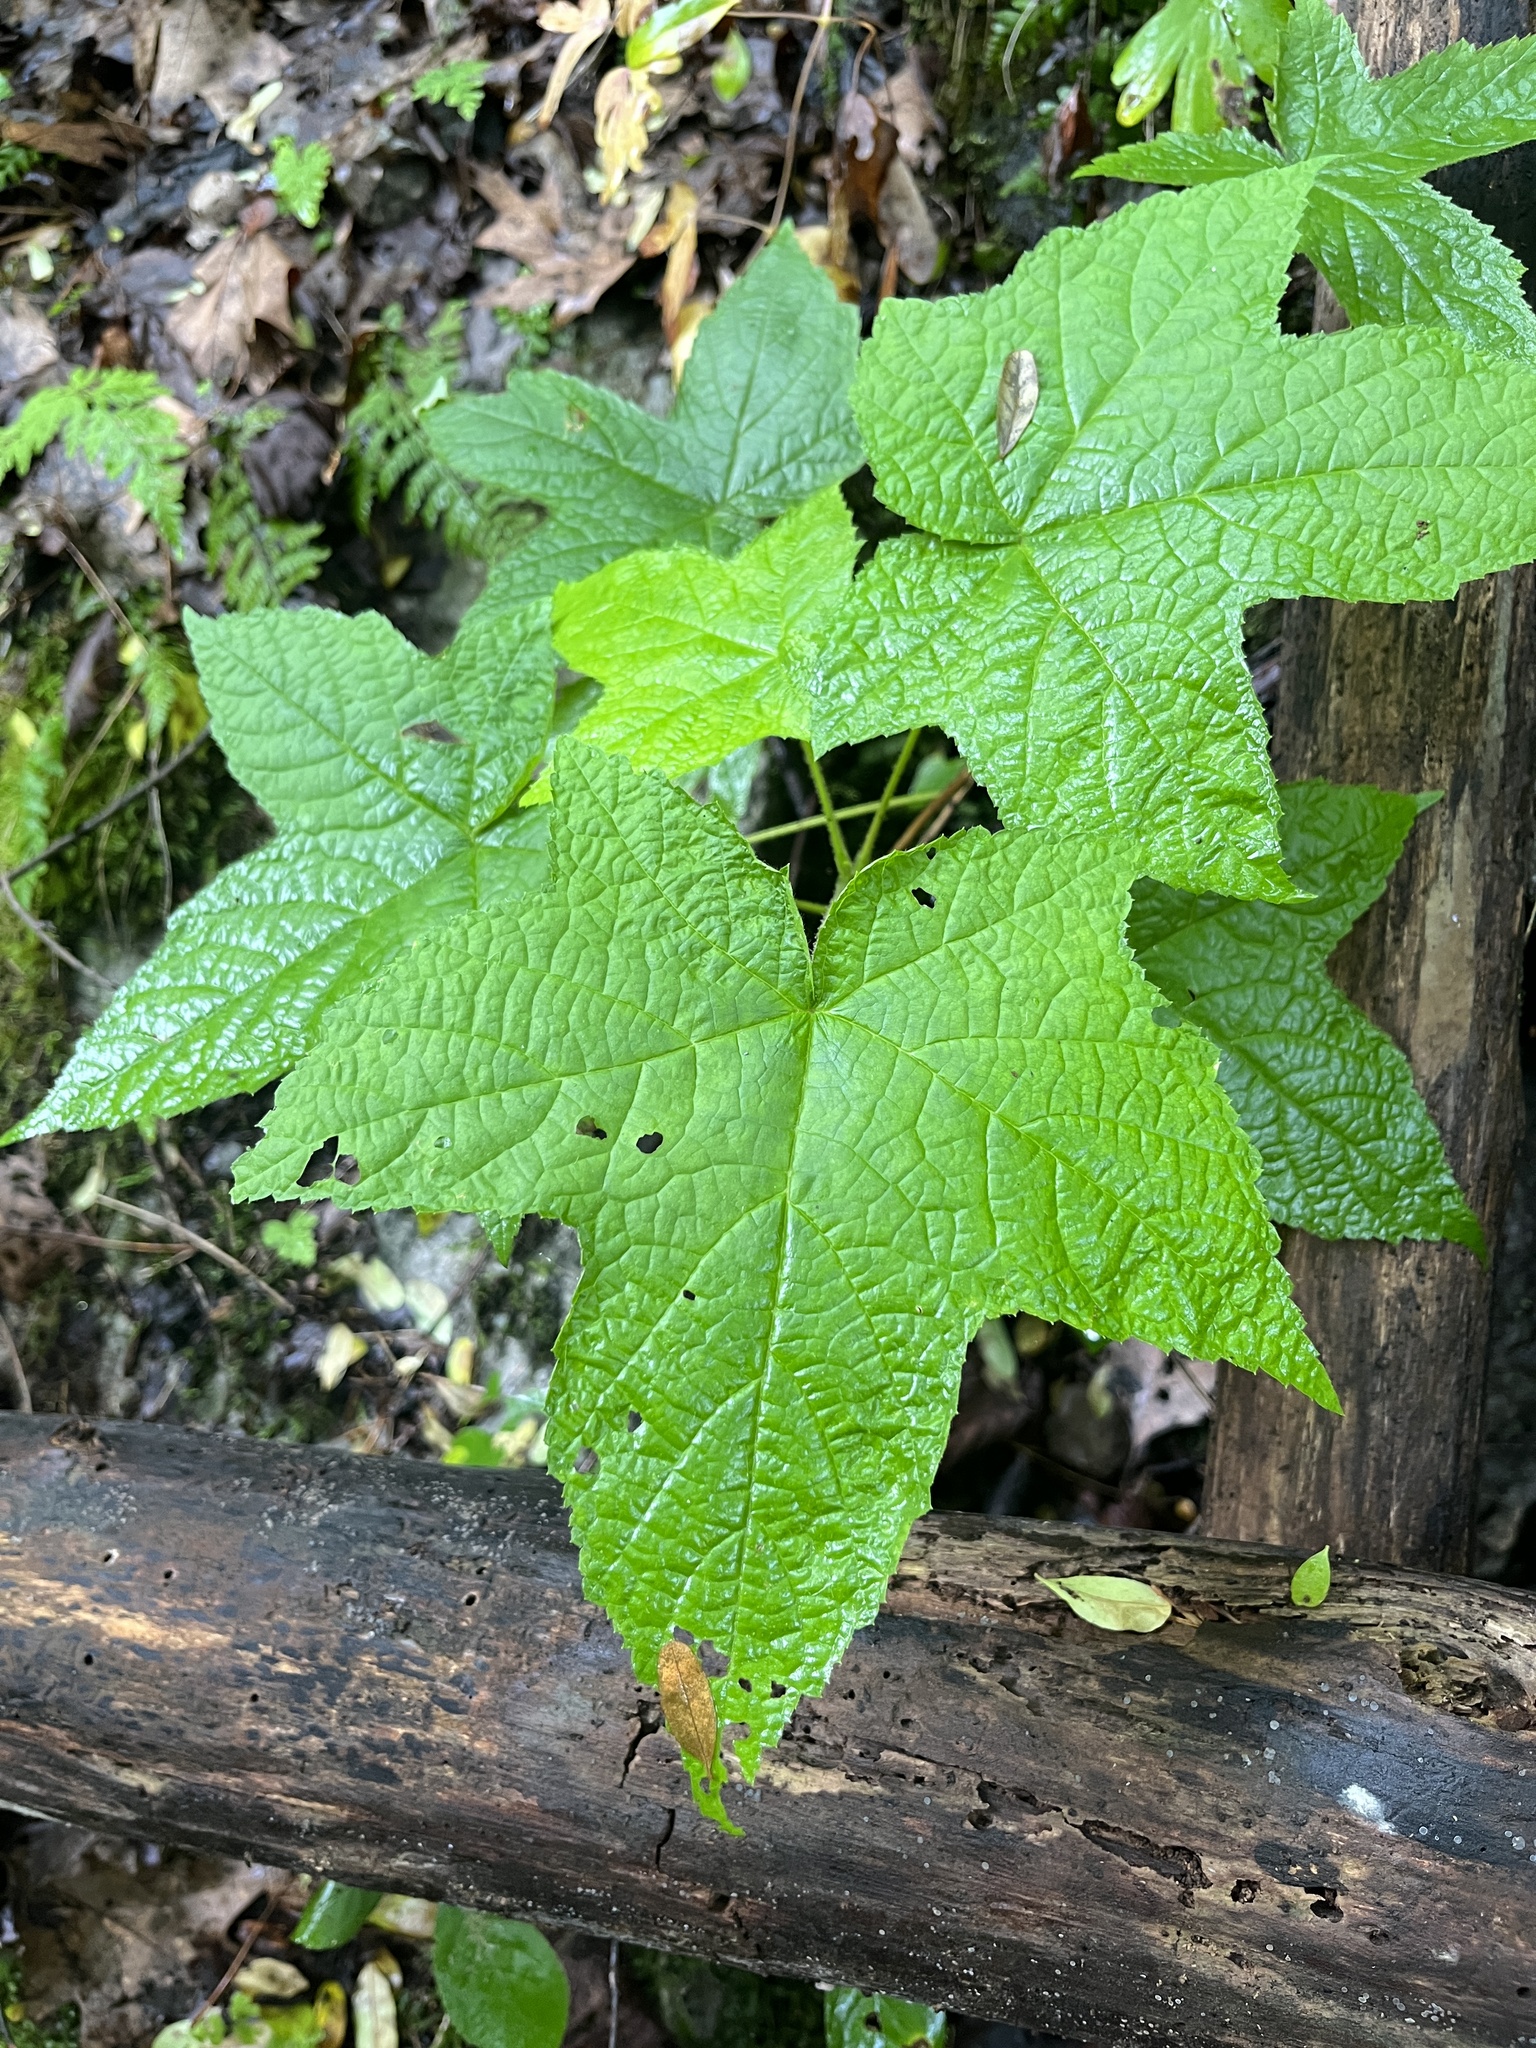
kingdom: Plantae
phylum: Tracheophyta
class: Magnoliopsida
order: Rosales
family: Rosaceae
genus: Rubus
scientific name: Rubus odoratus
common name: Purple-flowered raspberry
